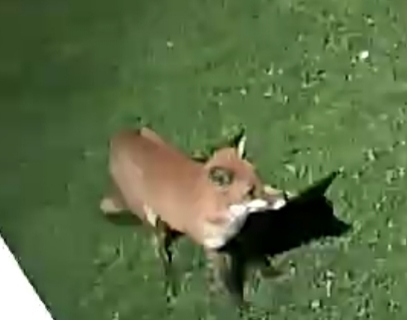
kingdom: Animalia
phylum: Chordata
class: Mammalia
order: Carnivora
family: Canidae
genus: Vulpes
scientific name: Vulpes vulpes
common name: Red fox
